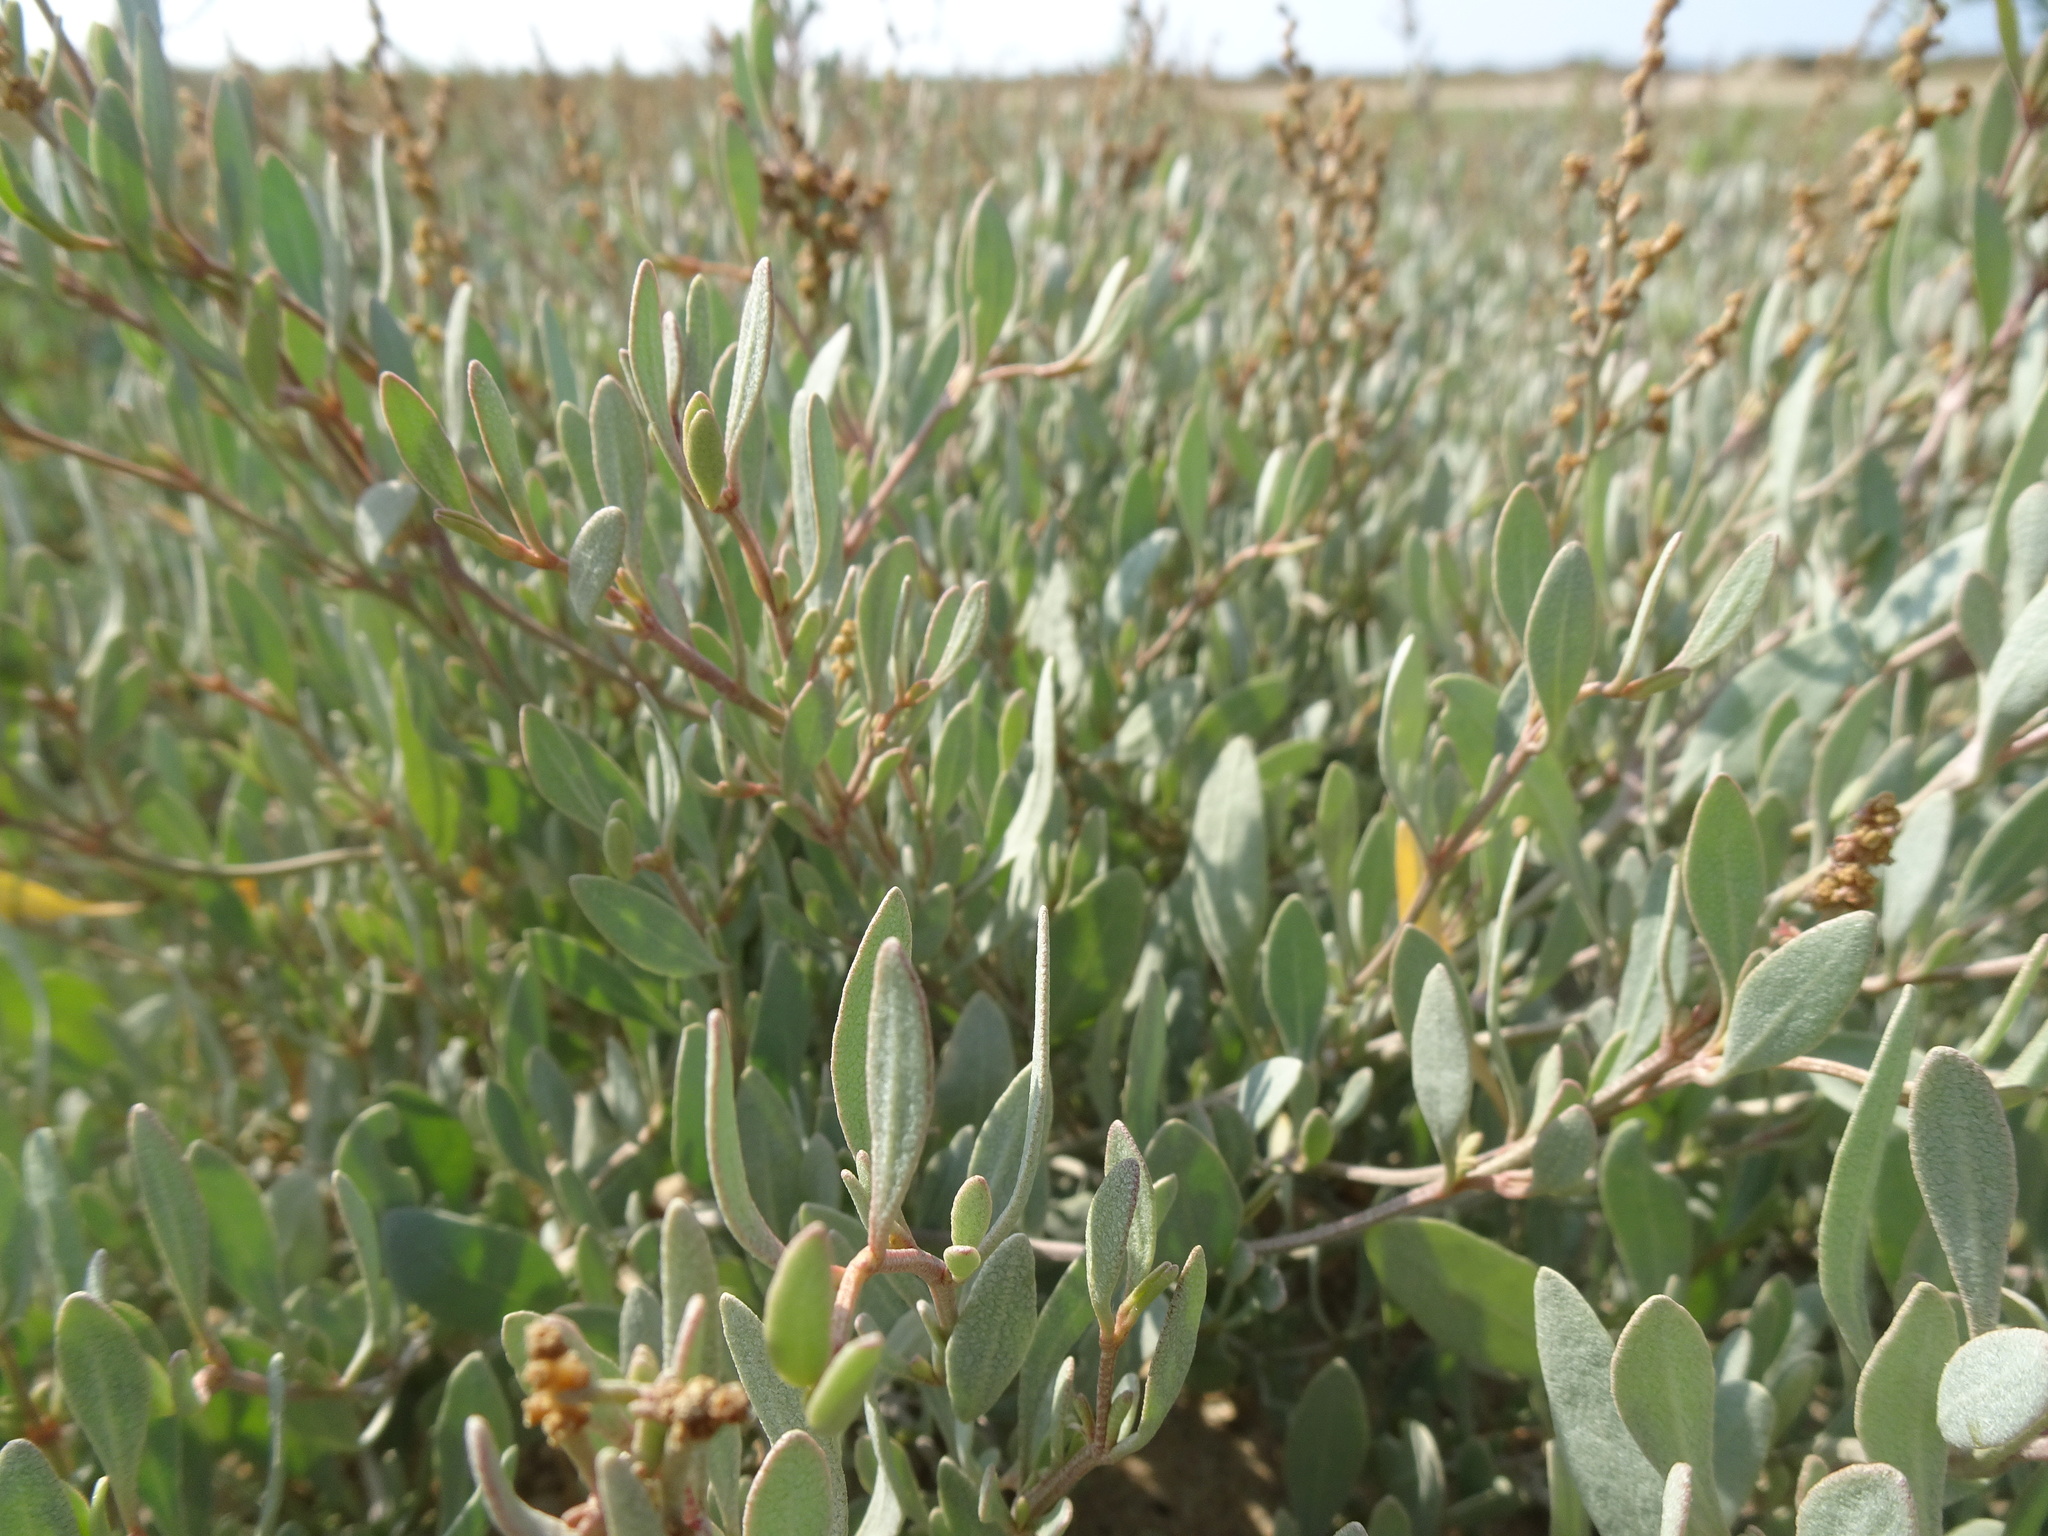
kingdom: Plantae
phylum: Tracheophyta
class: Magnoliopsida
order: Caryophyllales
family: Amaranthaceae
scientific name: Amaranthaceae
